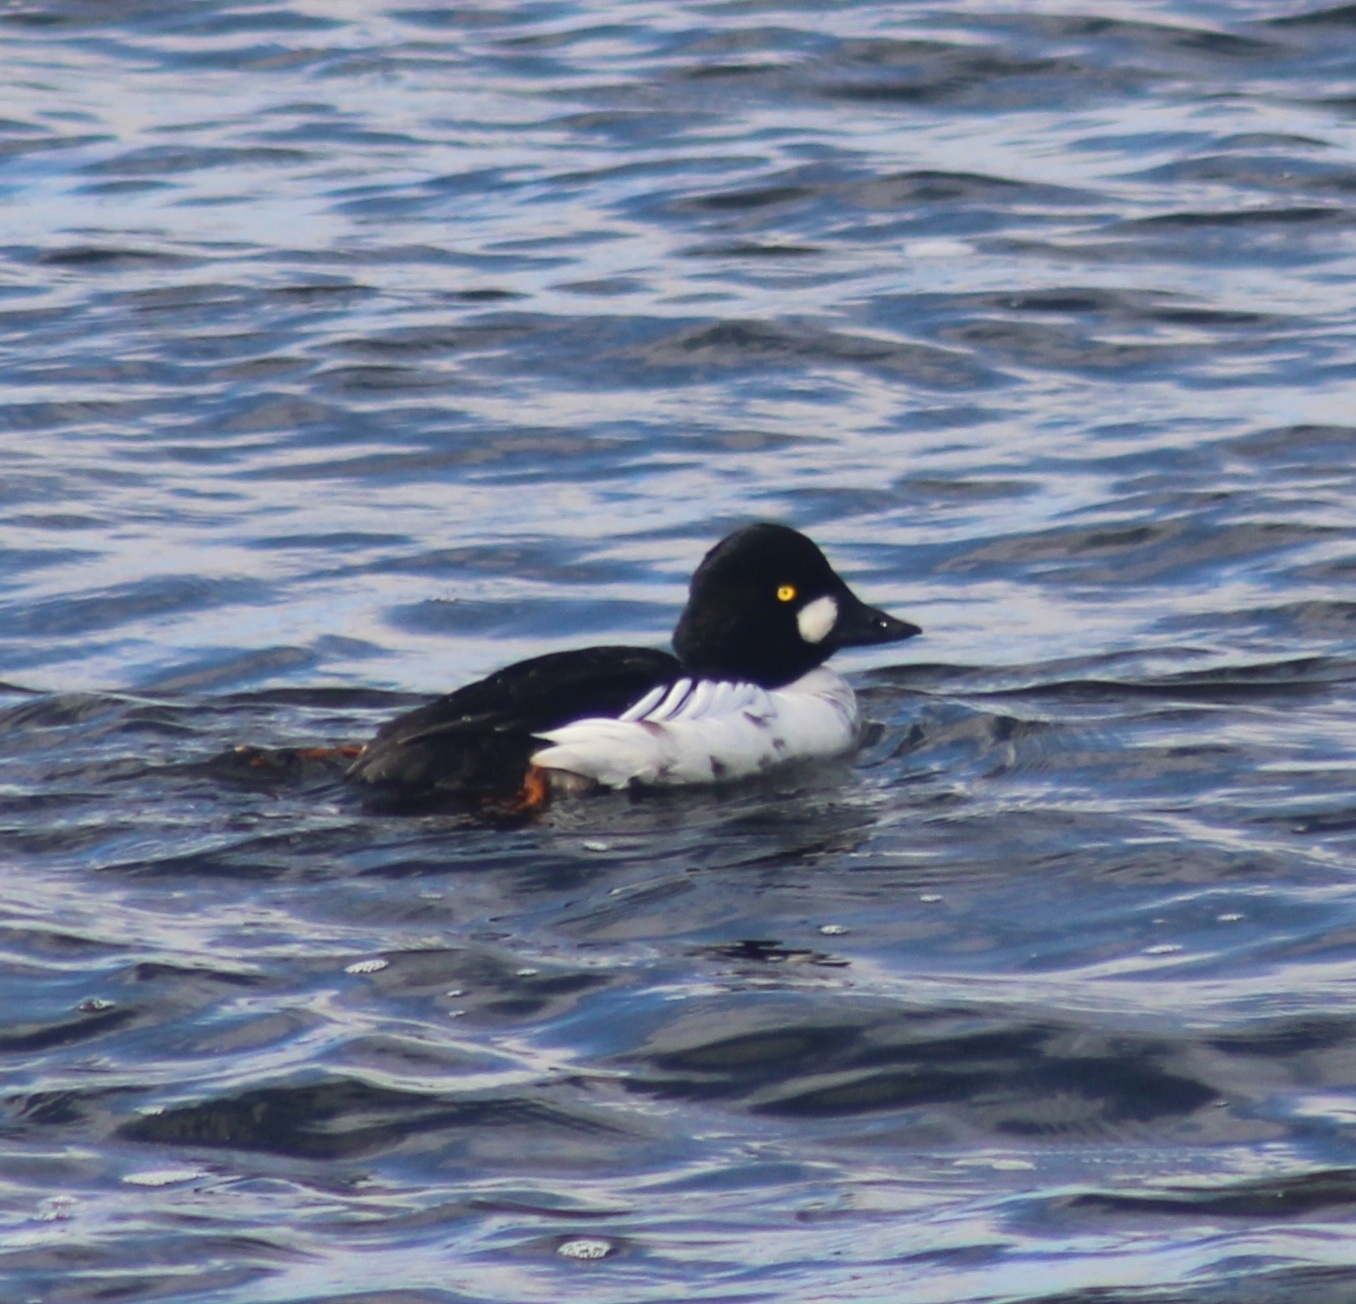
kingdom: Animalia
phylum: Chordata
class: Aves
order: Anseriformes
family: Anatidae
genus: Bucephala
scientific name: Bucephala clangula
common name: Common goldeneye
